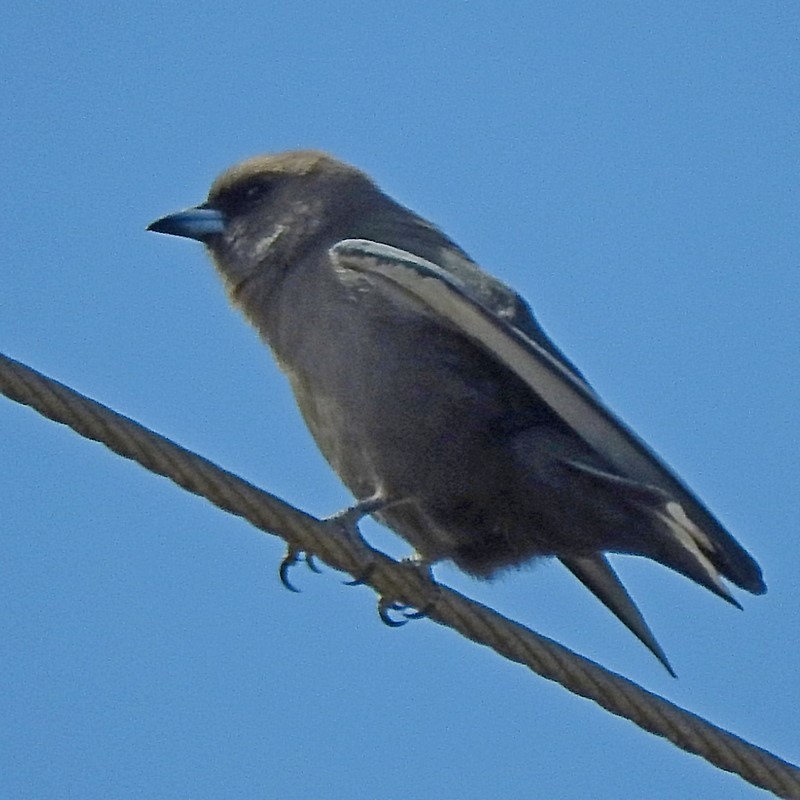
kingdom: Animalia
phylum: Chordata
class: Aves
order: Passeriformes
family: Artamidae
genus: Artamus
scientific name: Artamus cyanopterus
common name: Dusky woodswallow
